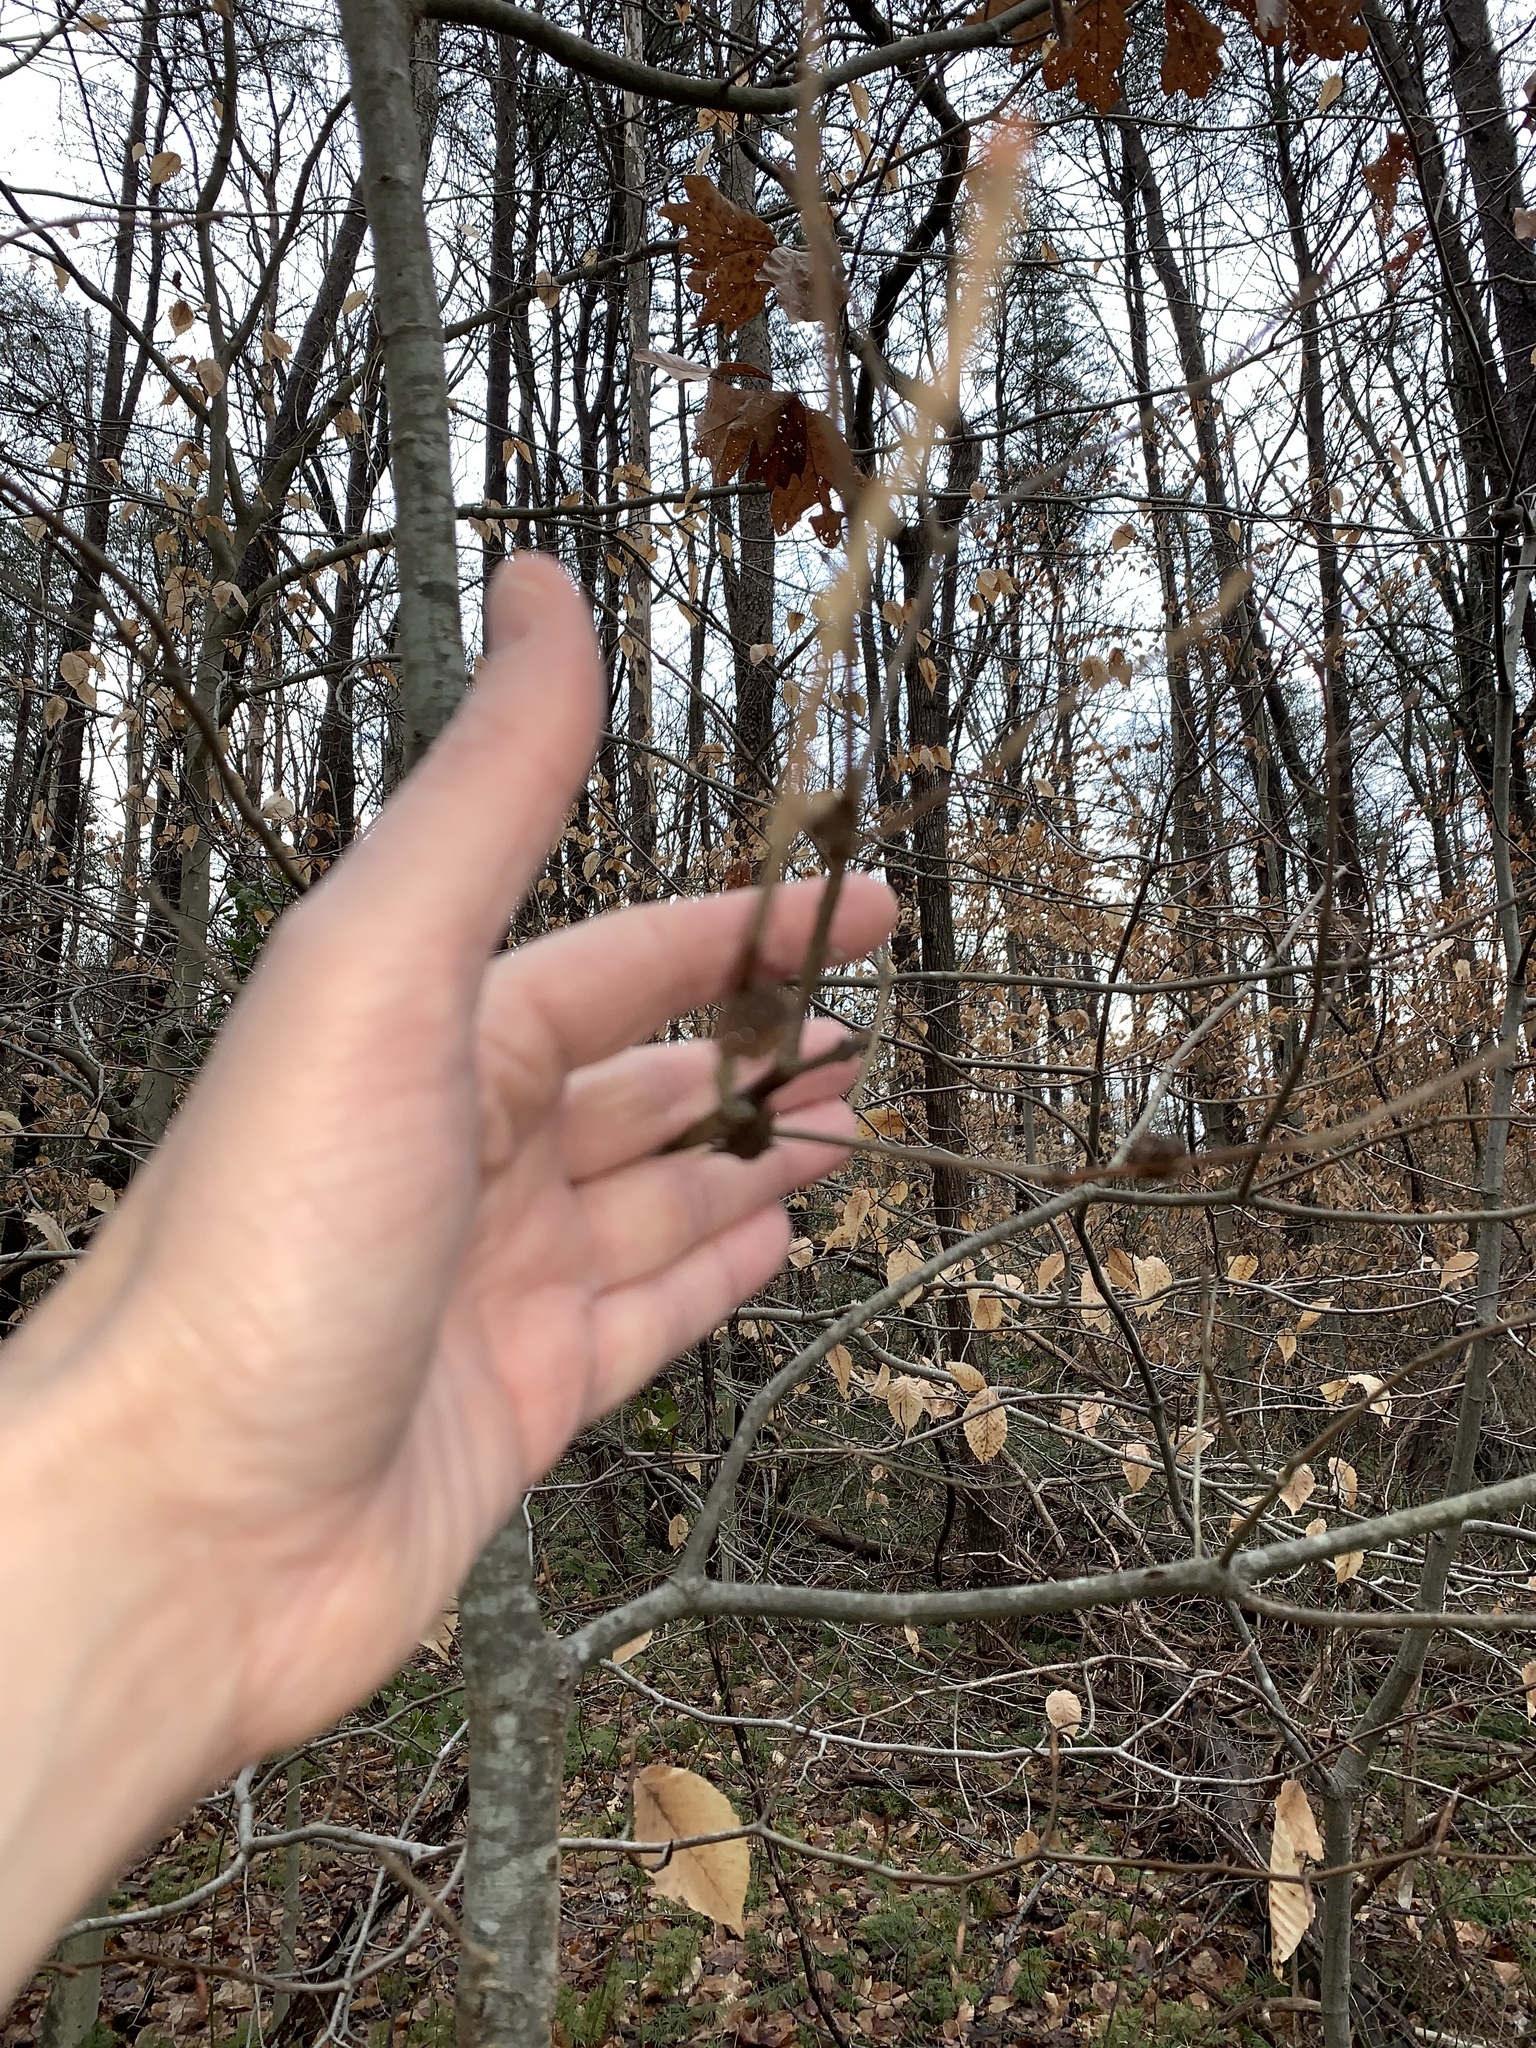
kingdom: Animalia
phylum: Arthropoda
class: Insecta
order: Hymenoptera
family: Cynipidae
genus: Dryocosmus
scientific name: Dryocosmus
